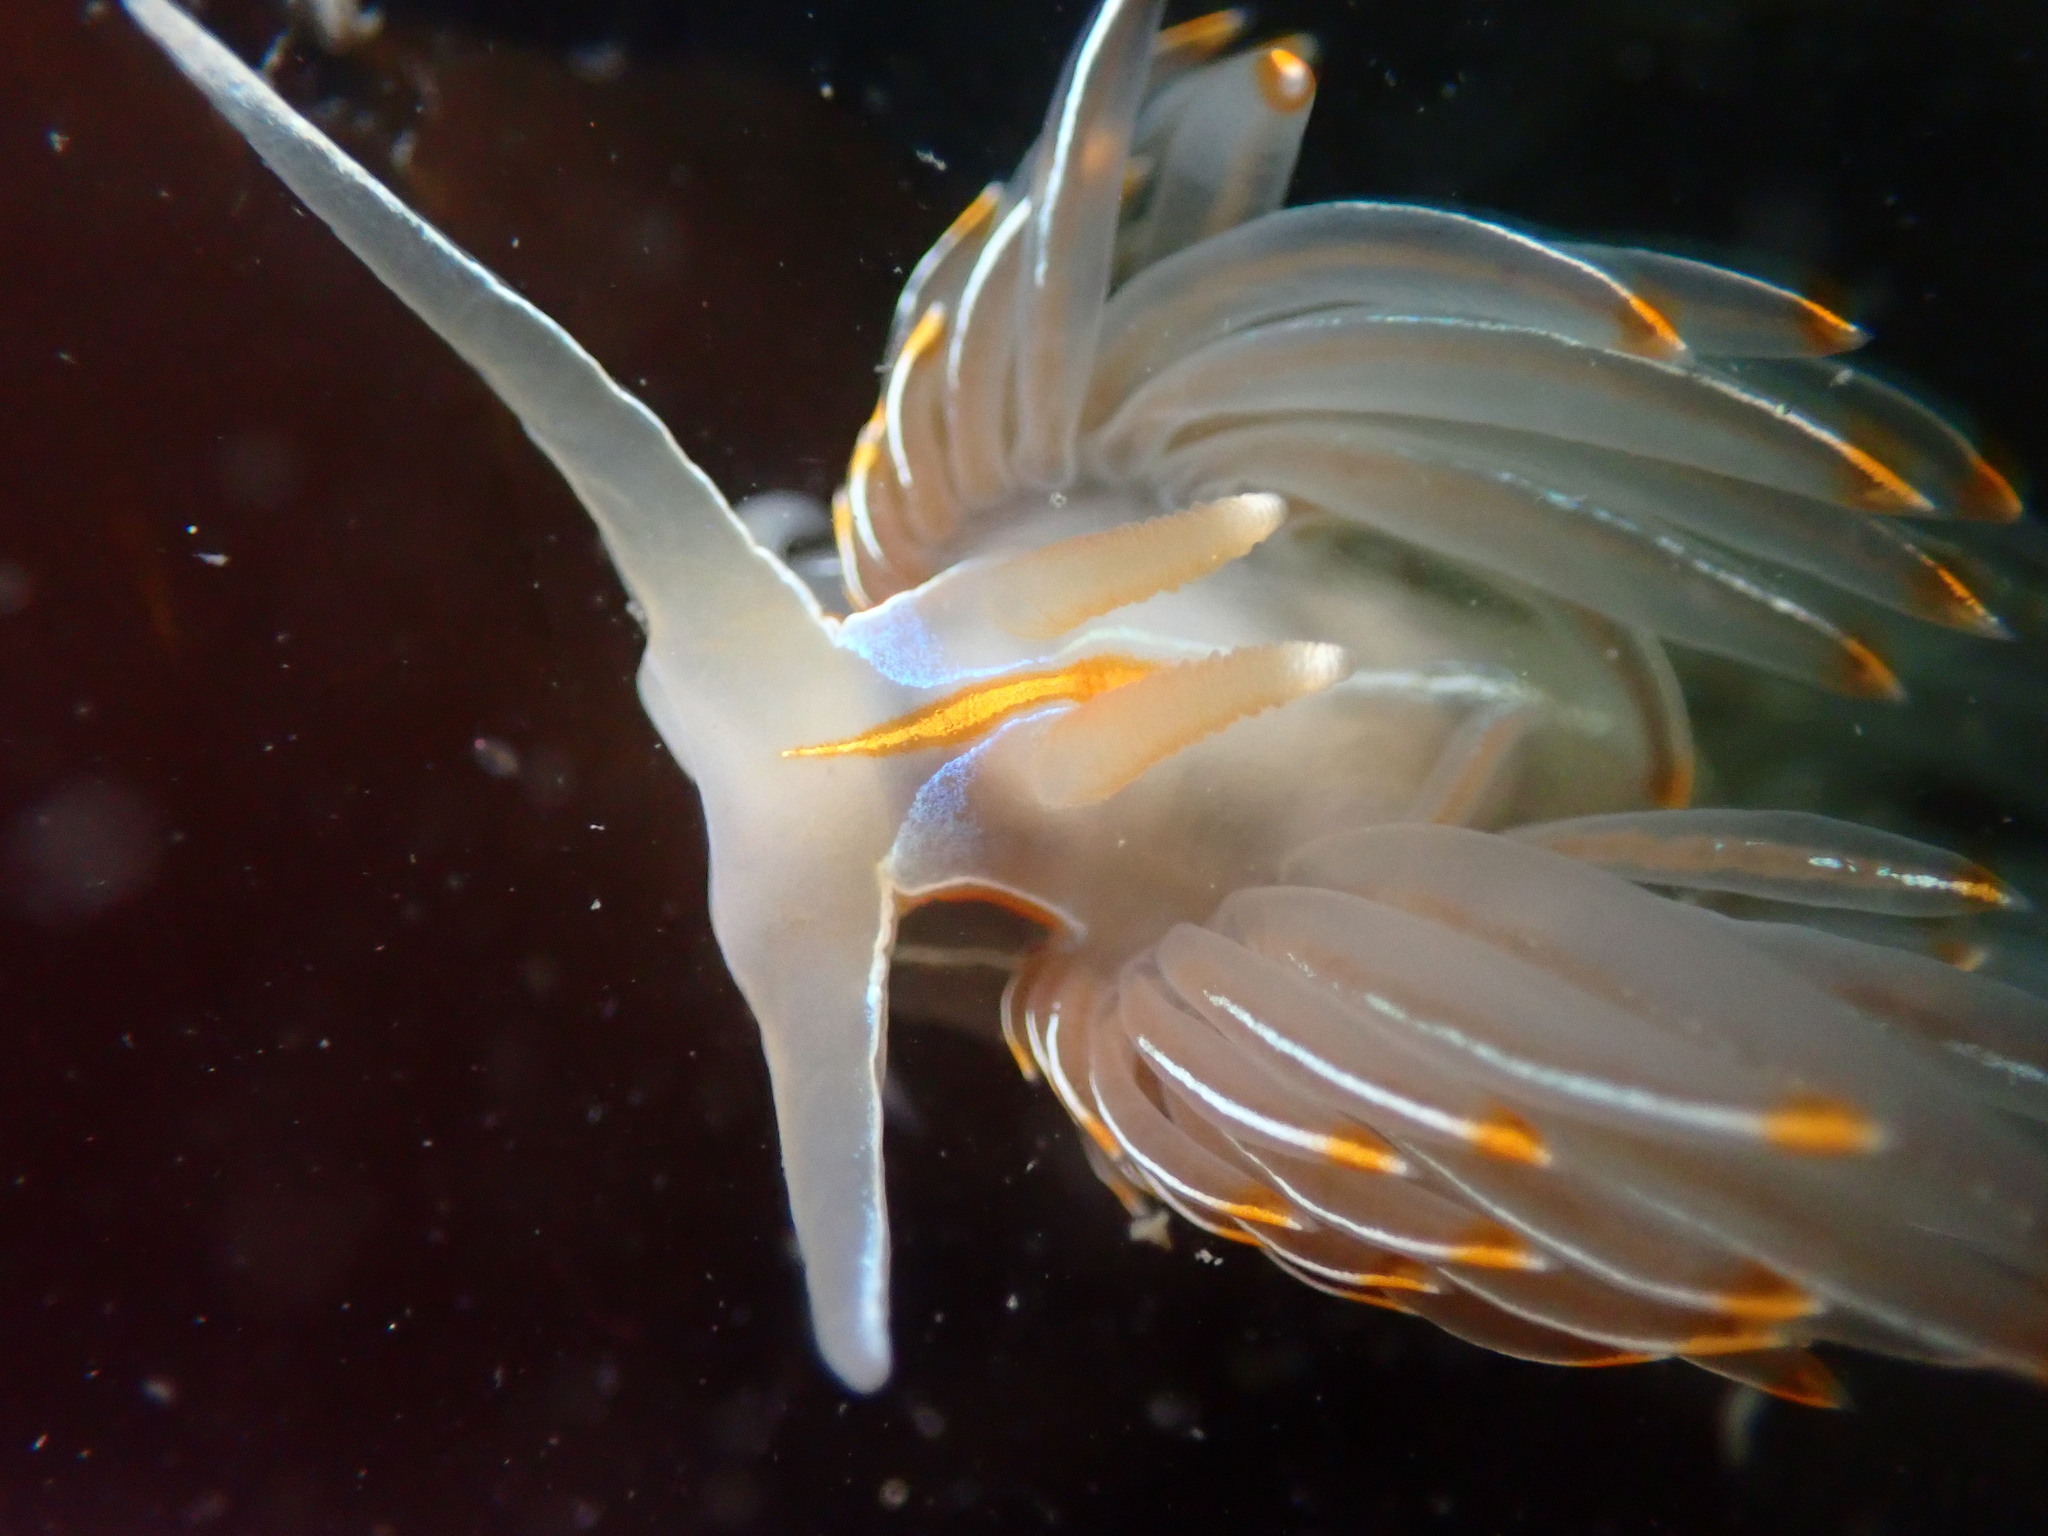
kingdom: Animalia
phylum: Mollusca
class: Gastropoda
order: Nudibranchia
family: Myrrhinidae
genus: Hermissenda
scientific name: Hermissenda crassicornis
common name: Hermissenda
